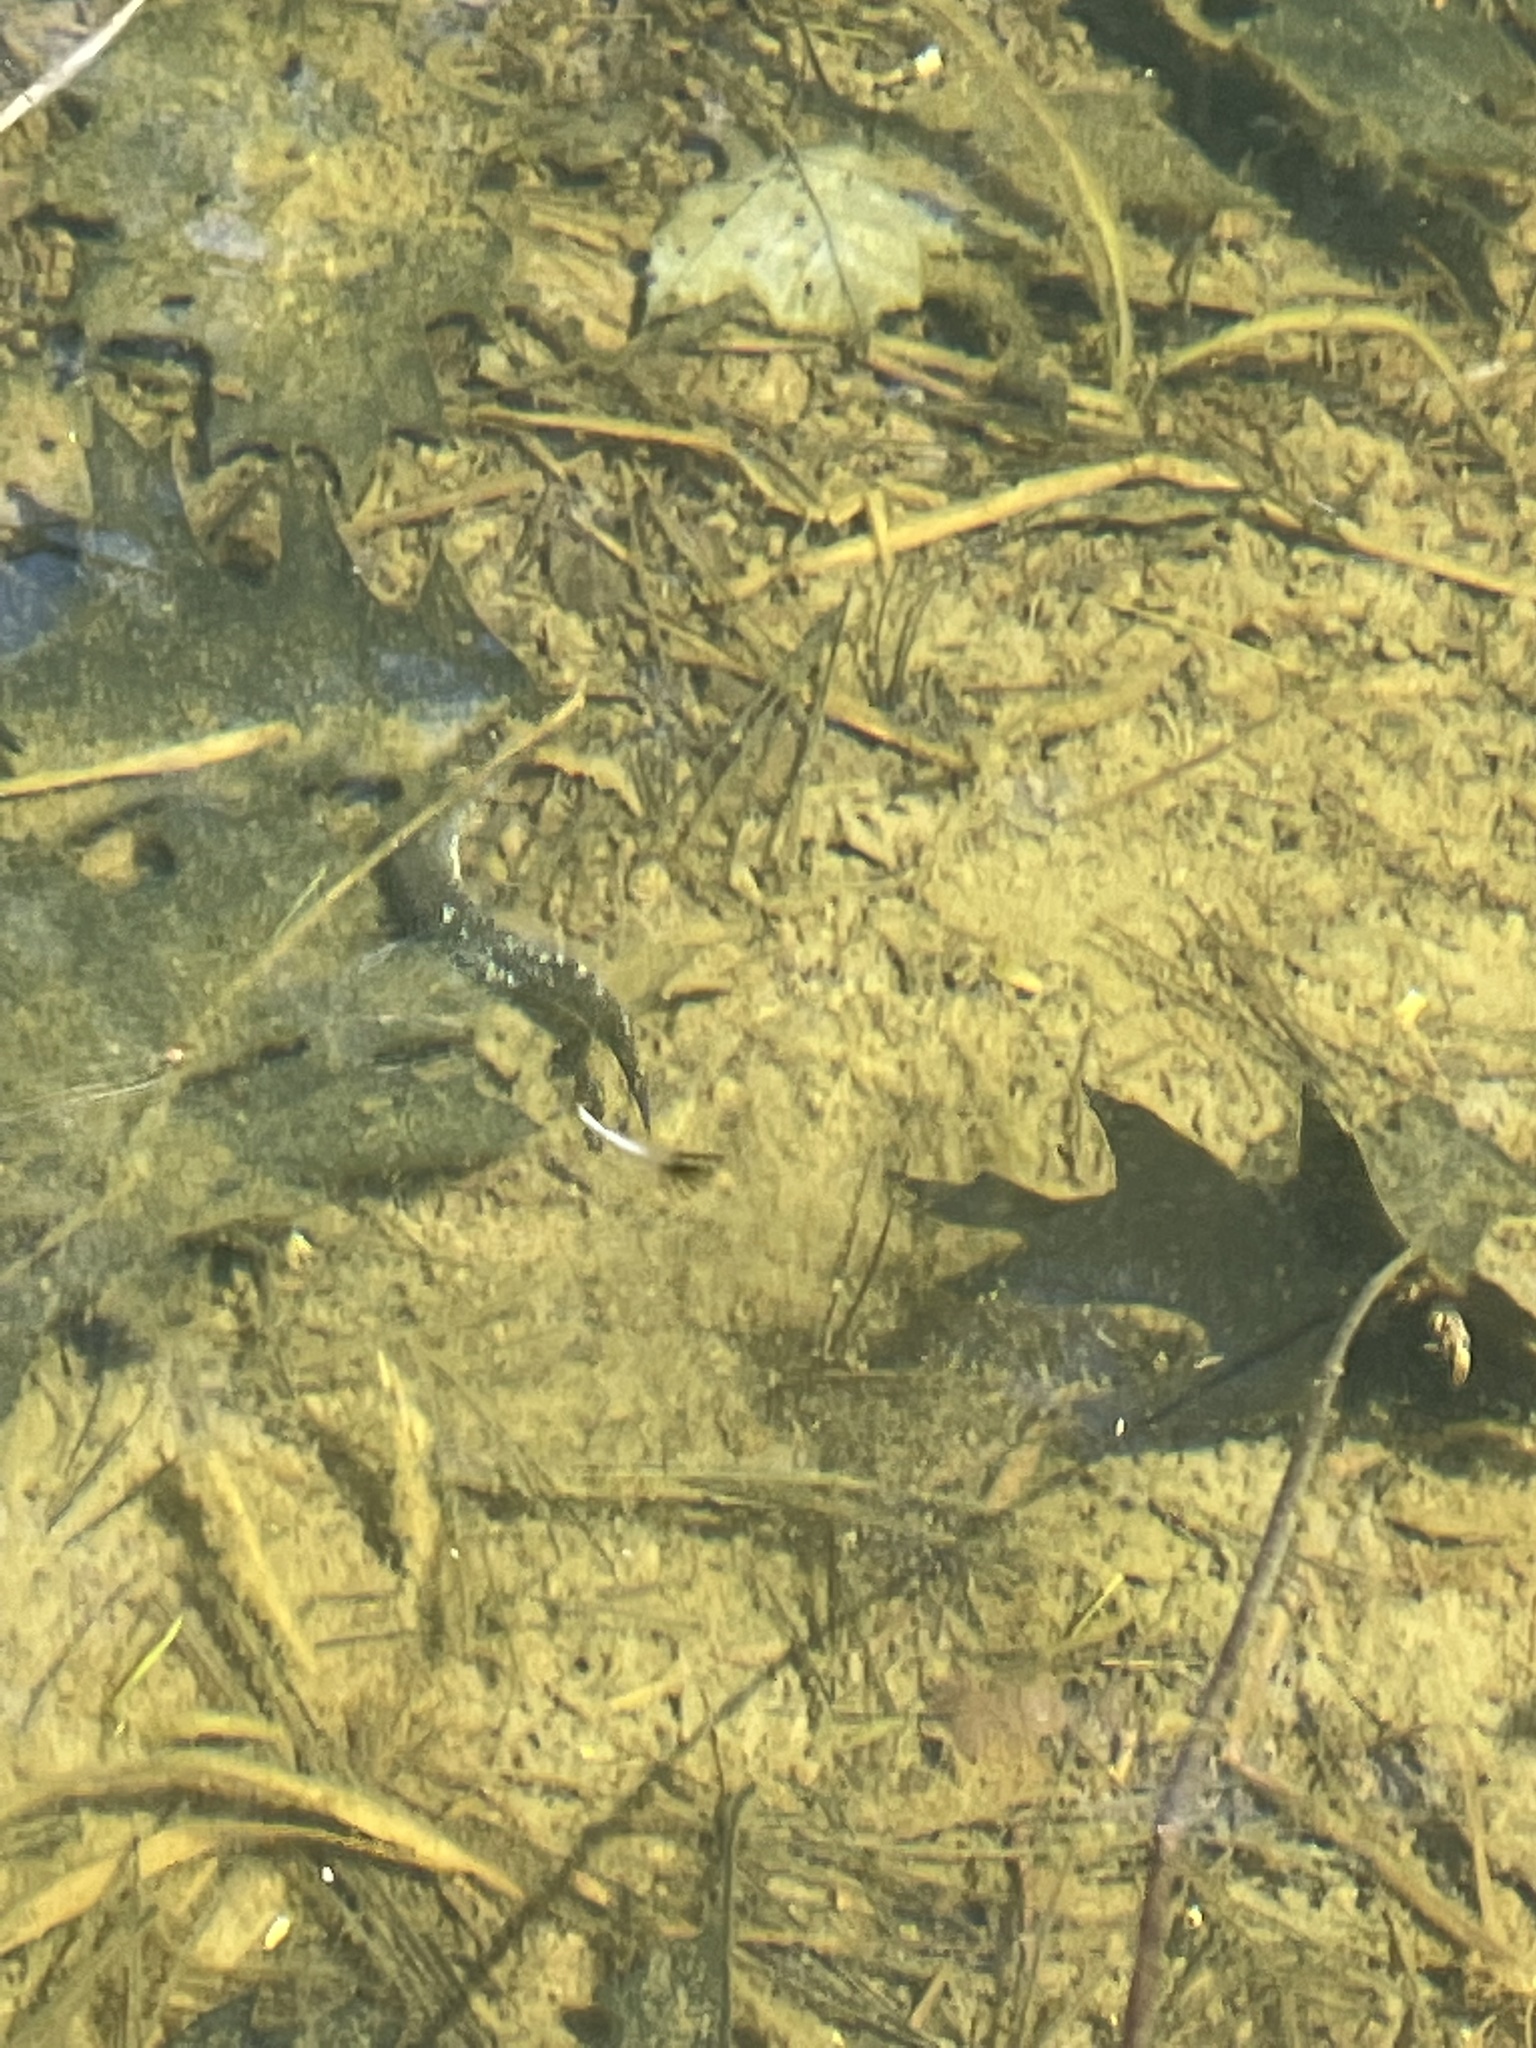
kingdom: Animalia
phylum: Chordata
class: Amphibia
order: Caudata
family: Ambystomatidae
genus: Ambystoma
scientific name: Ambystoma laterale
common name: Blue-spotted salamander
